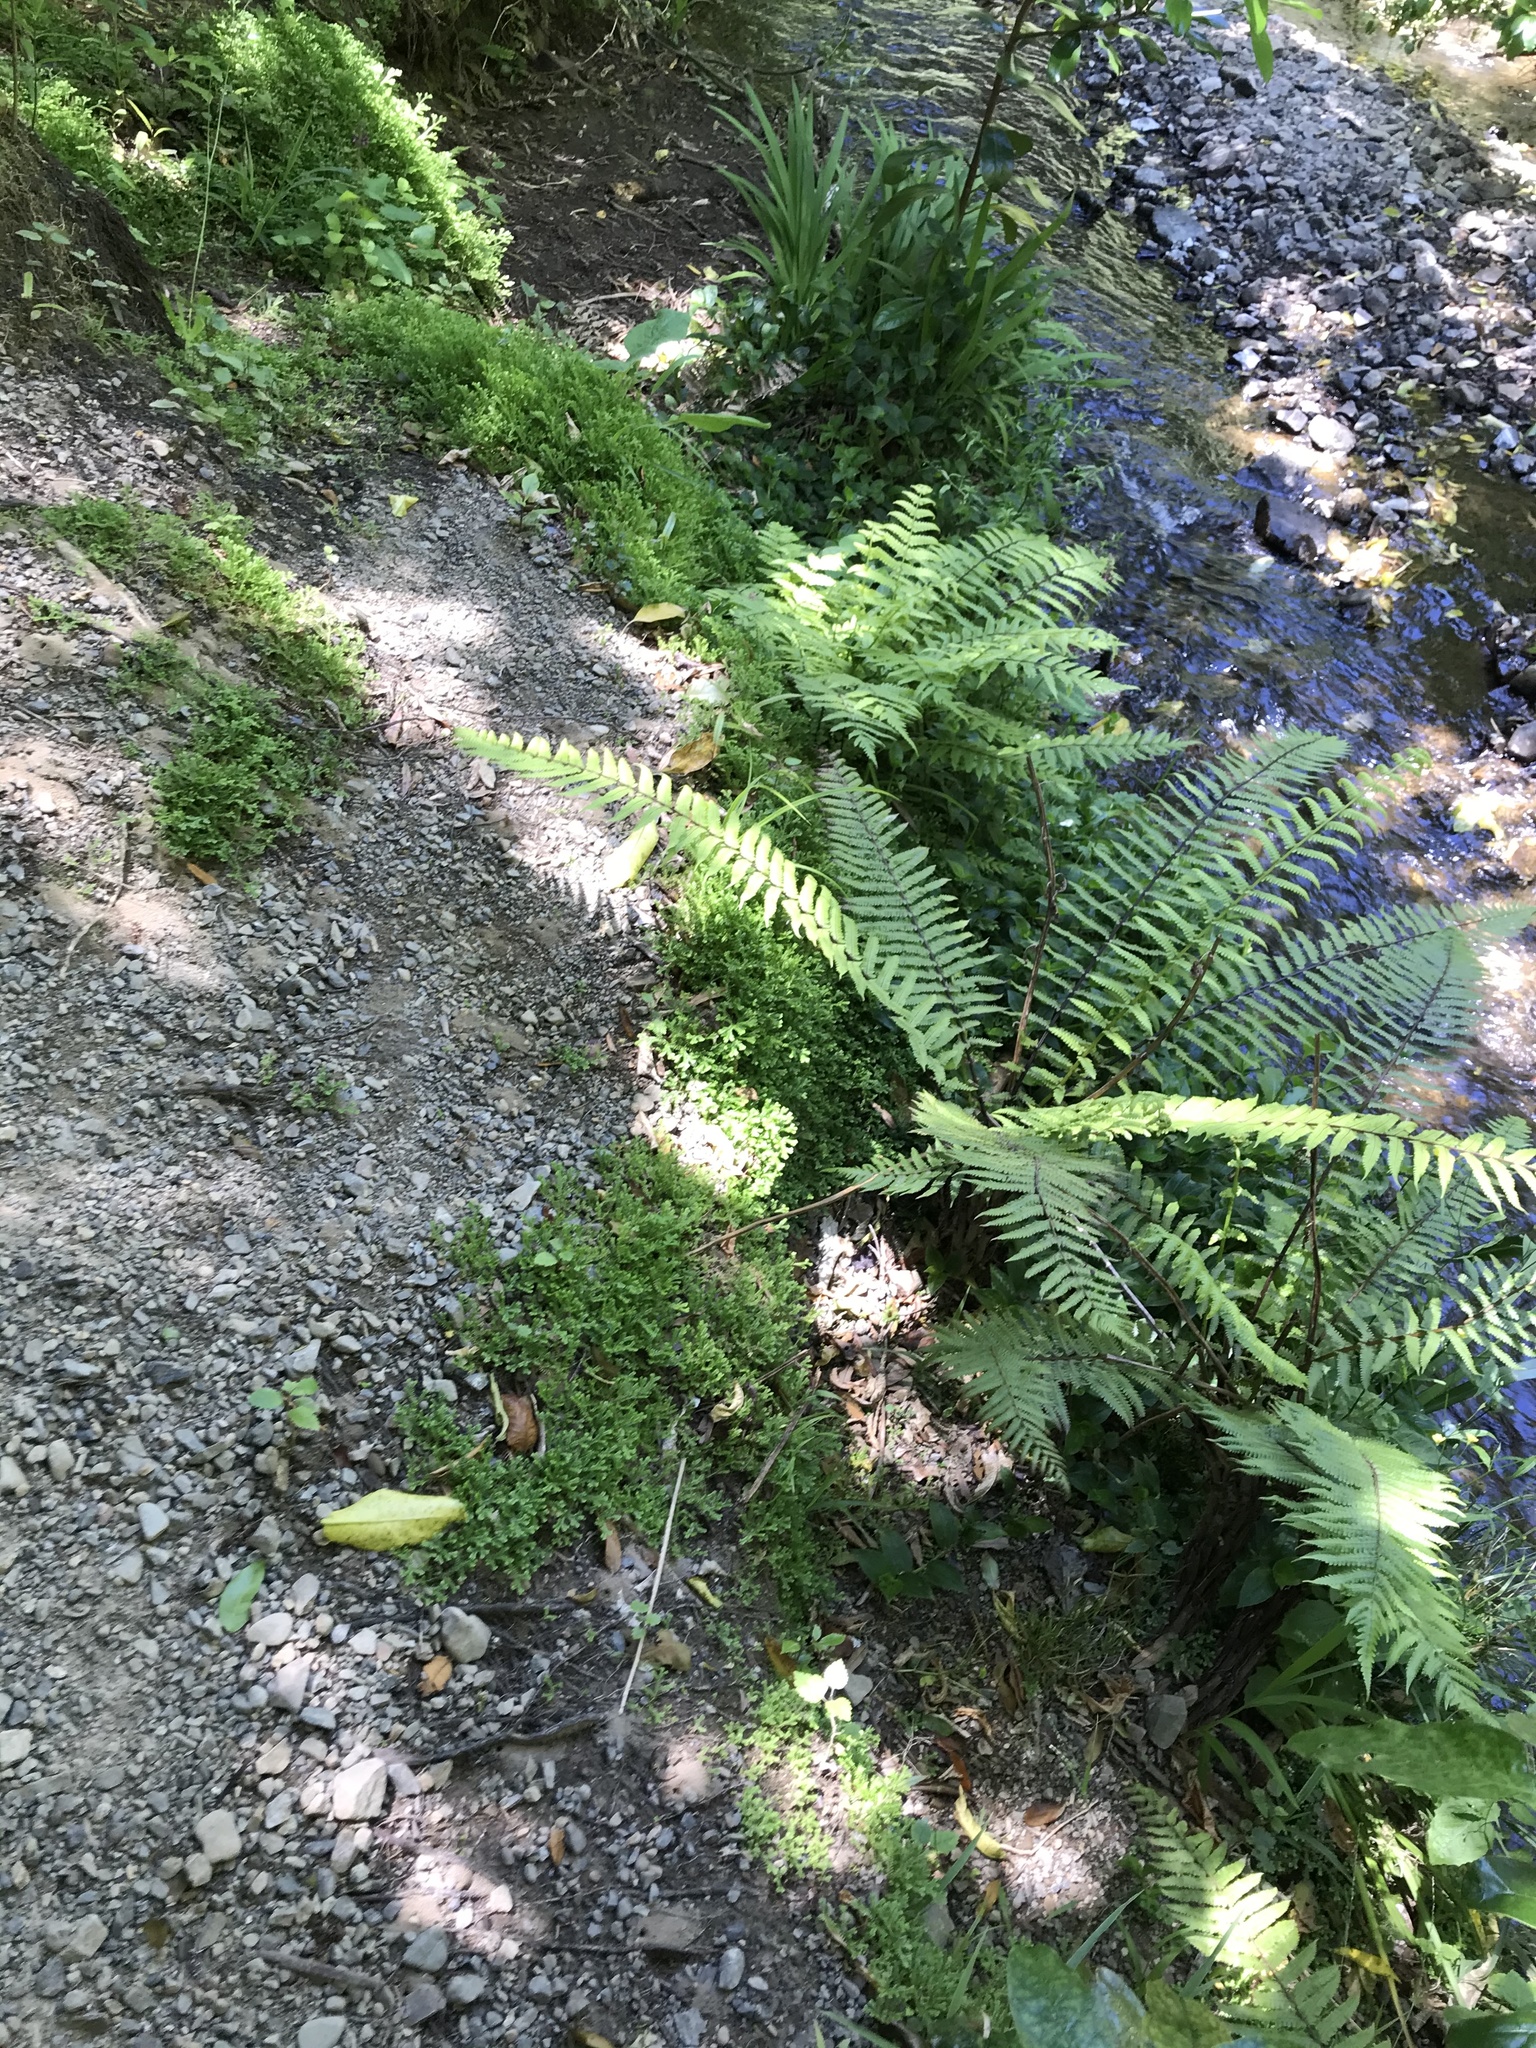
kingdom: Plantae
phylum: Tracheophyta
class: Lycopodiopsida
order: Selaginellales
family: Selaginellaceae
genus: Selaginella
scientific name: Selaginella kraussiana
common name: Krauss' spikemoss
